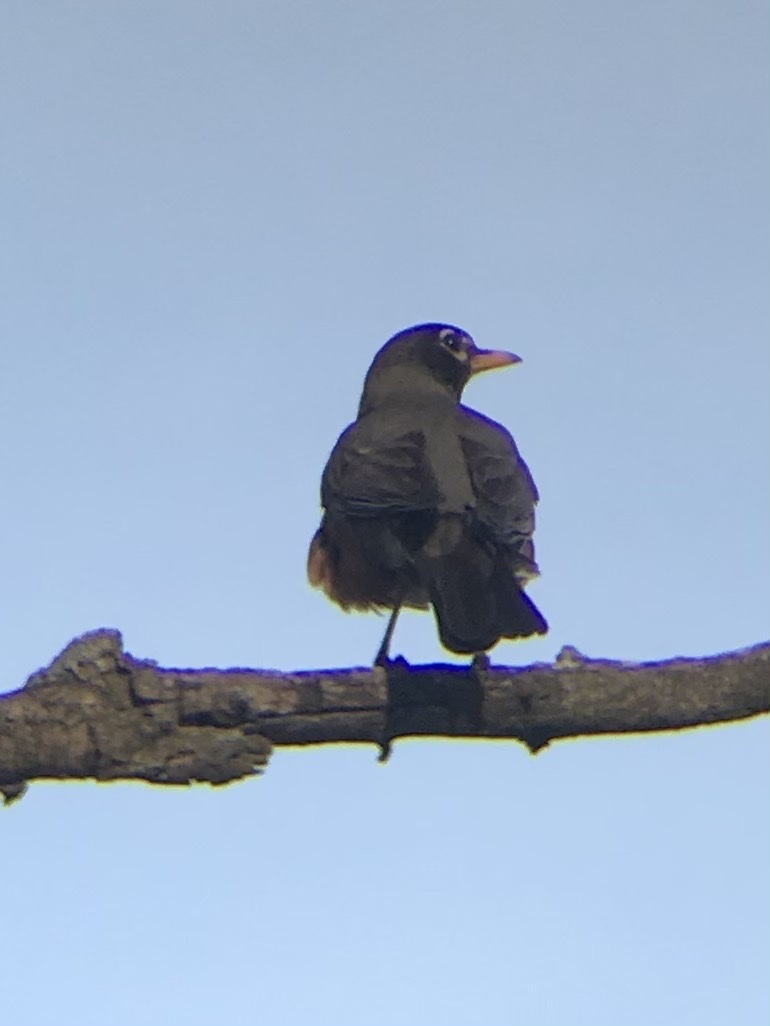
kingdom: Animalia
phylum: Chordata
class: Aves
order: Passeriformes
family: Turdidae
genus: Turdus
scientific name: Turdus migratorius
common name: American robin
